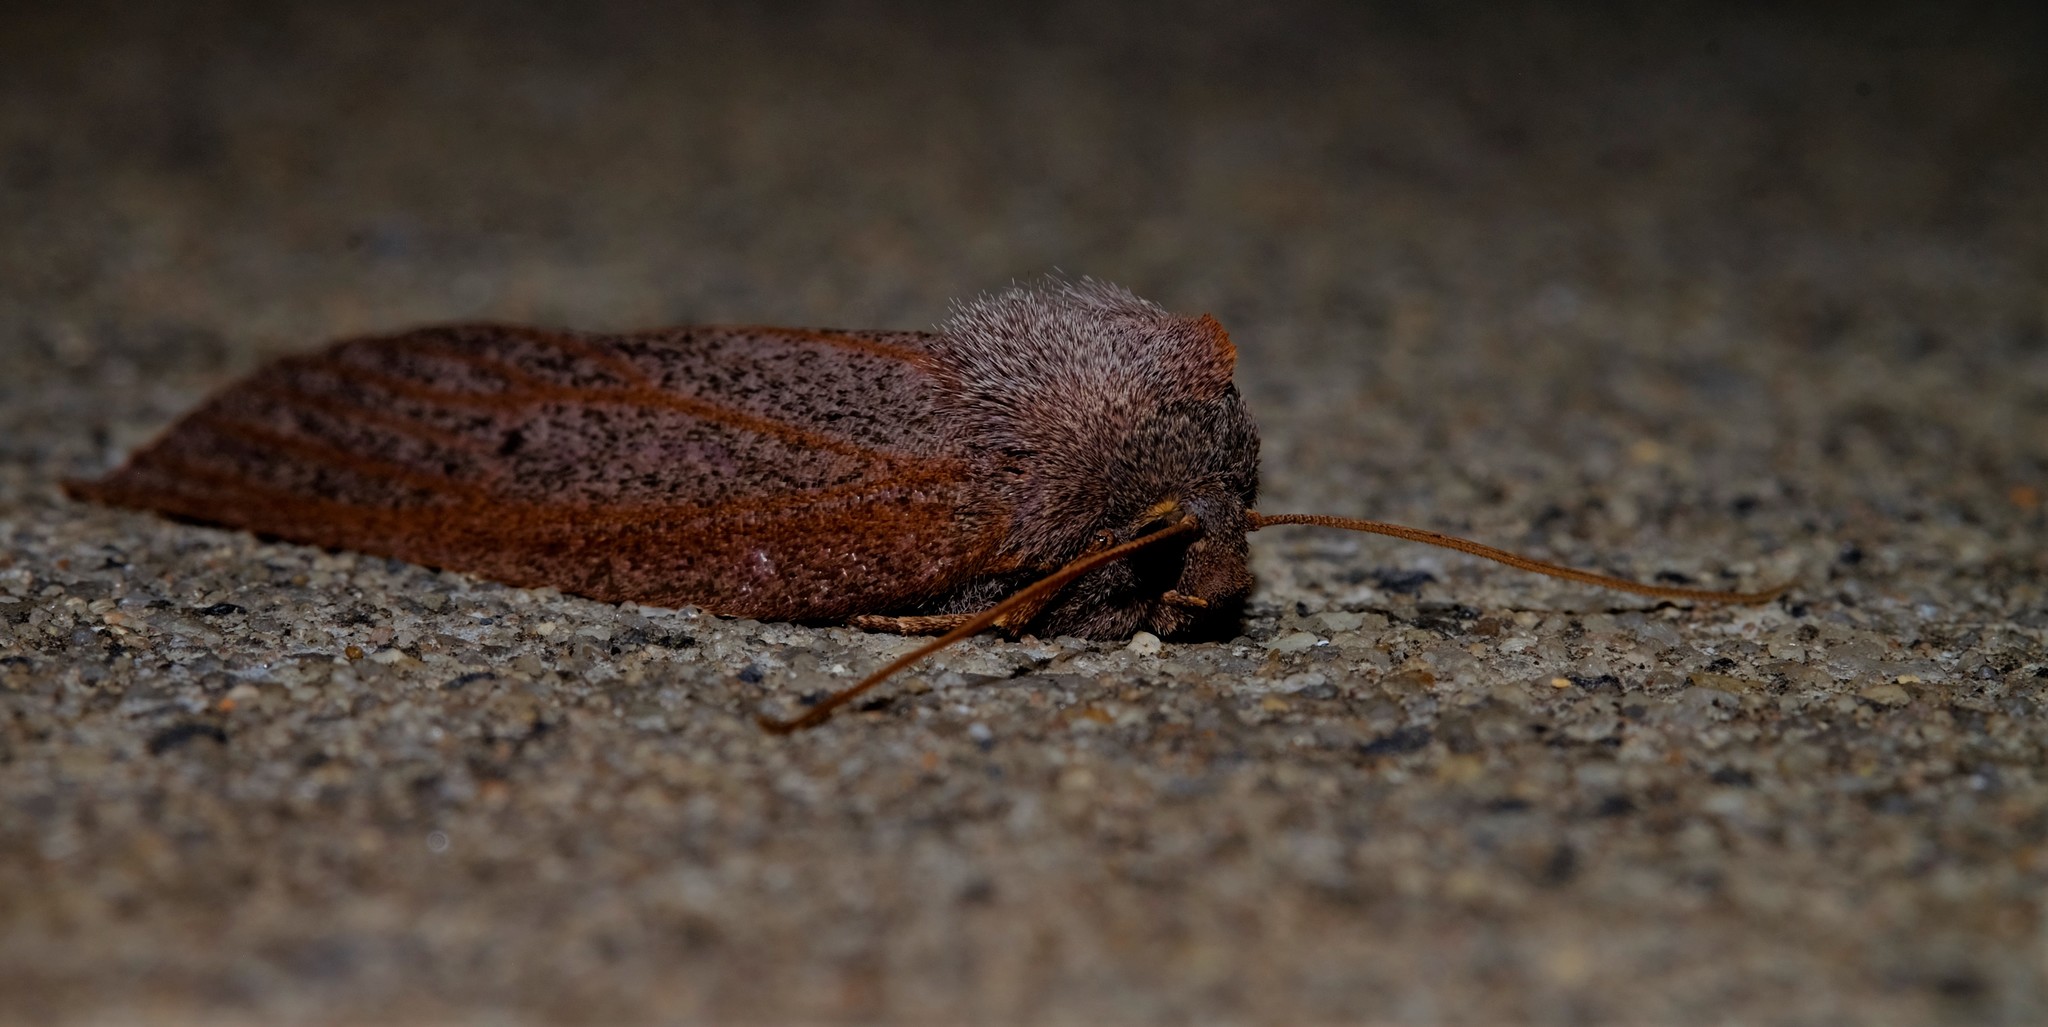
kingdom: Animalia
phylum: Arthropoda
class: Insecta
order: Lepidoptera
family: Geometridae
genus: Paralaea
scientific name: Paralaea porphyrinaria
